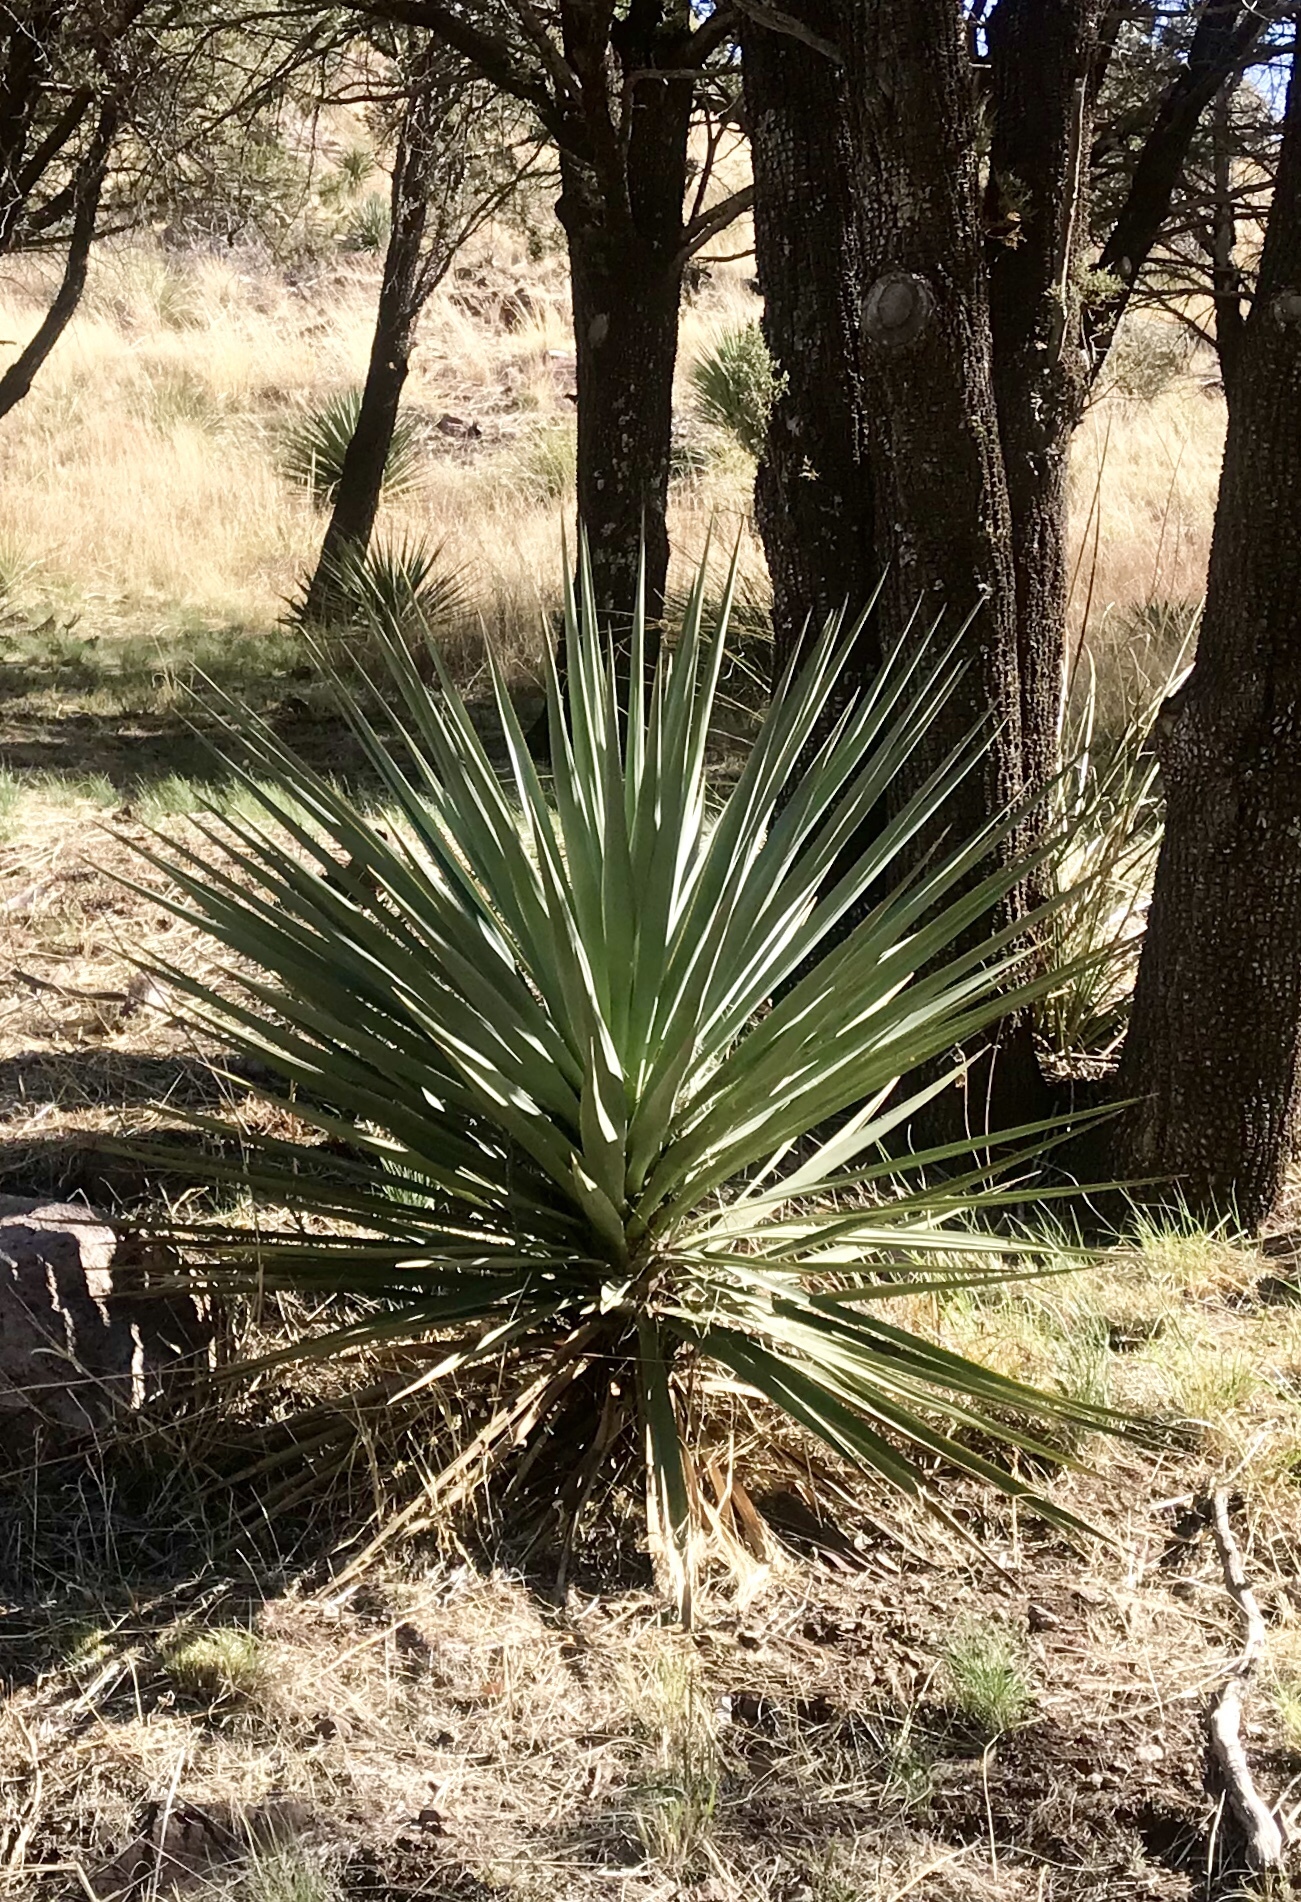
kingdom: Plantae
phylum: Tracheophyta
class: Liliopsida
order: Asparagales
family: Asparagaceae
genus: Yucca
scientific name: Yucca madrensis
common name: Hoary yucca
